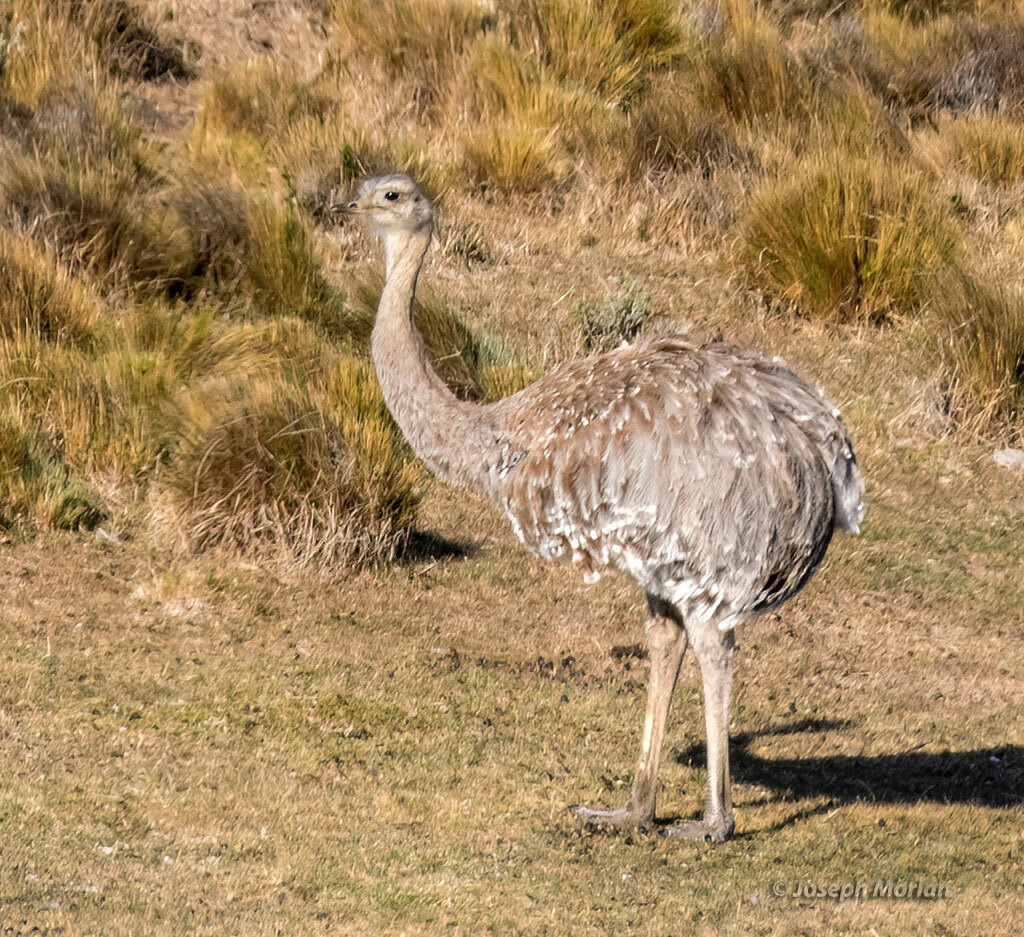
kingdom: Animalia
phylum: Chordata
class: Aves
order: Rheiformes
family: Rheidae
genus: Rhea
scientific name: Rhea pennata
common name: Lesser rhea
